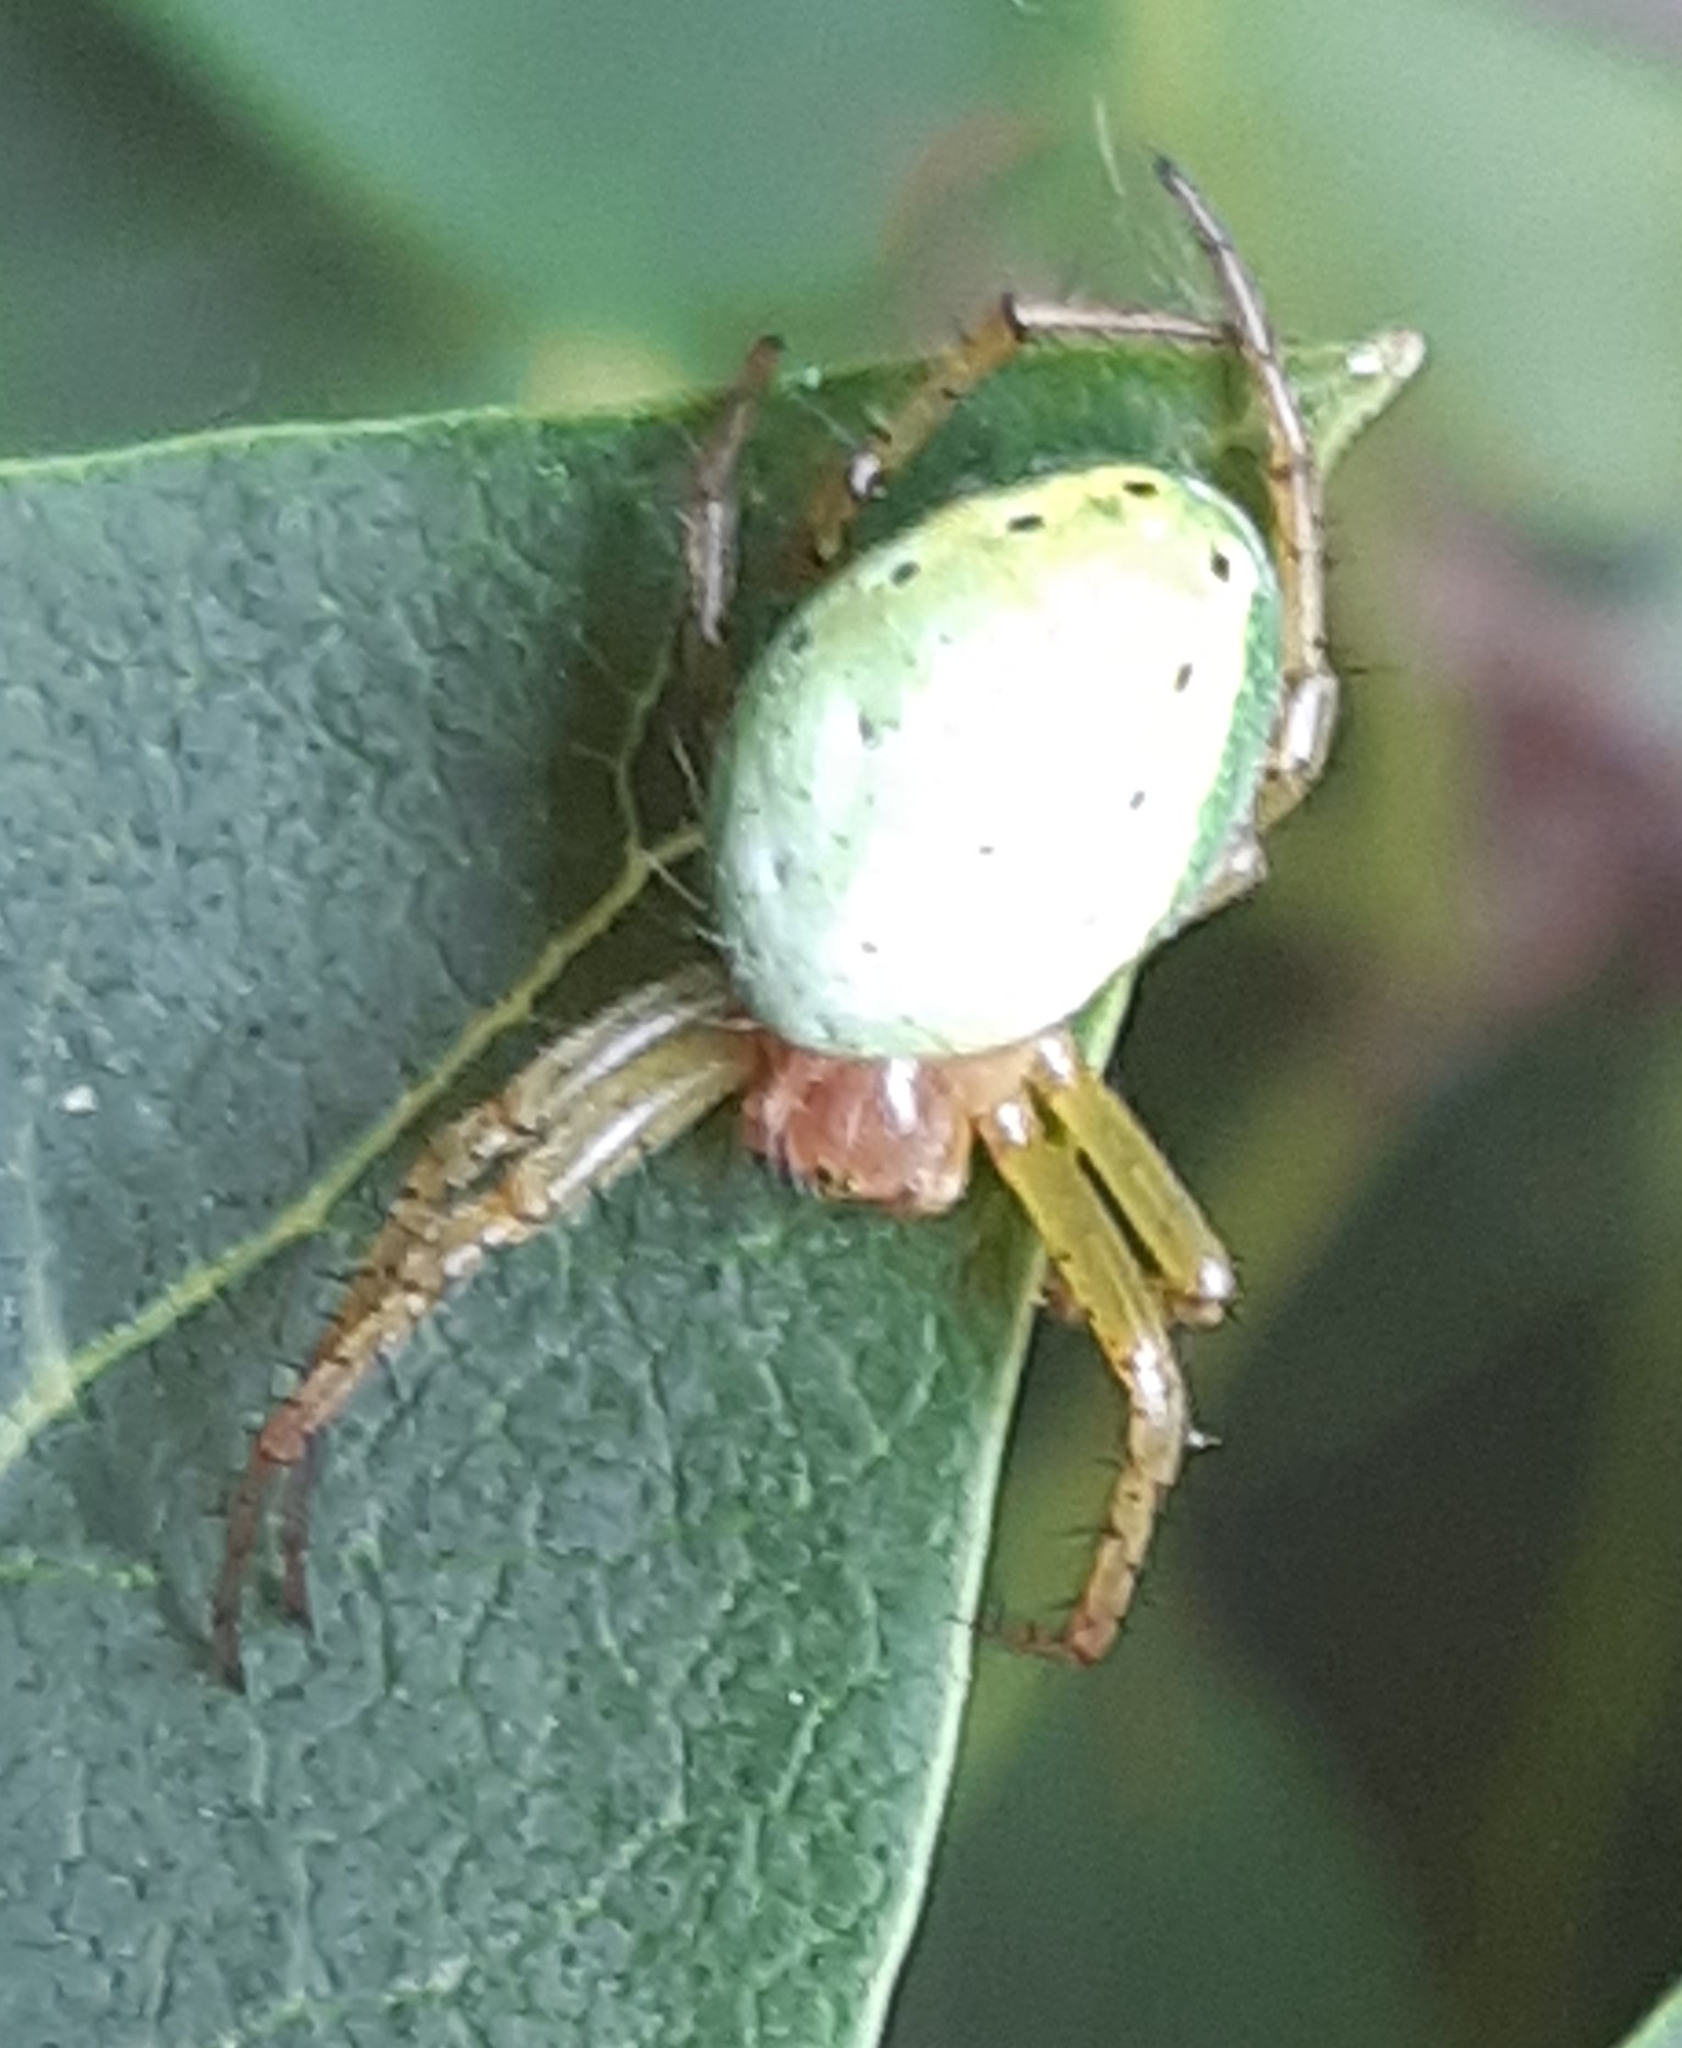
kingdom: Animalia
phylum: Arthropoda
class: Arachnida
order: Araneae
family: Araneidae
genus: Araniella
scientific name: Araniella cucurbitina
